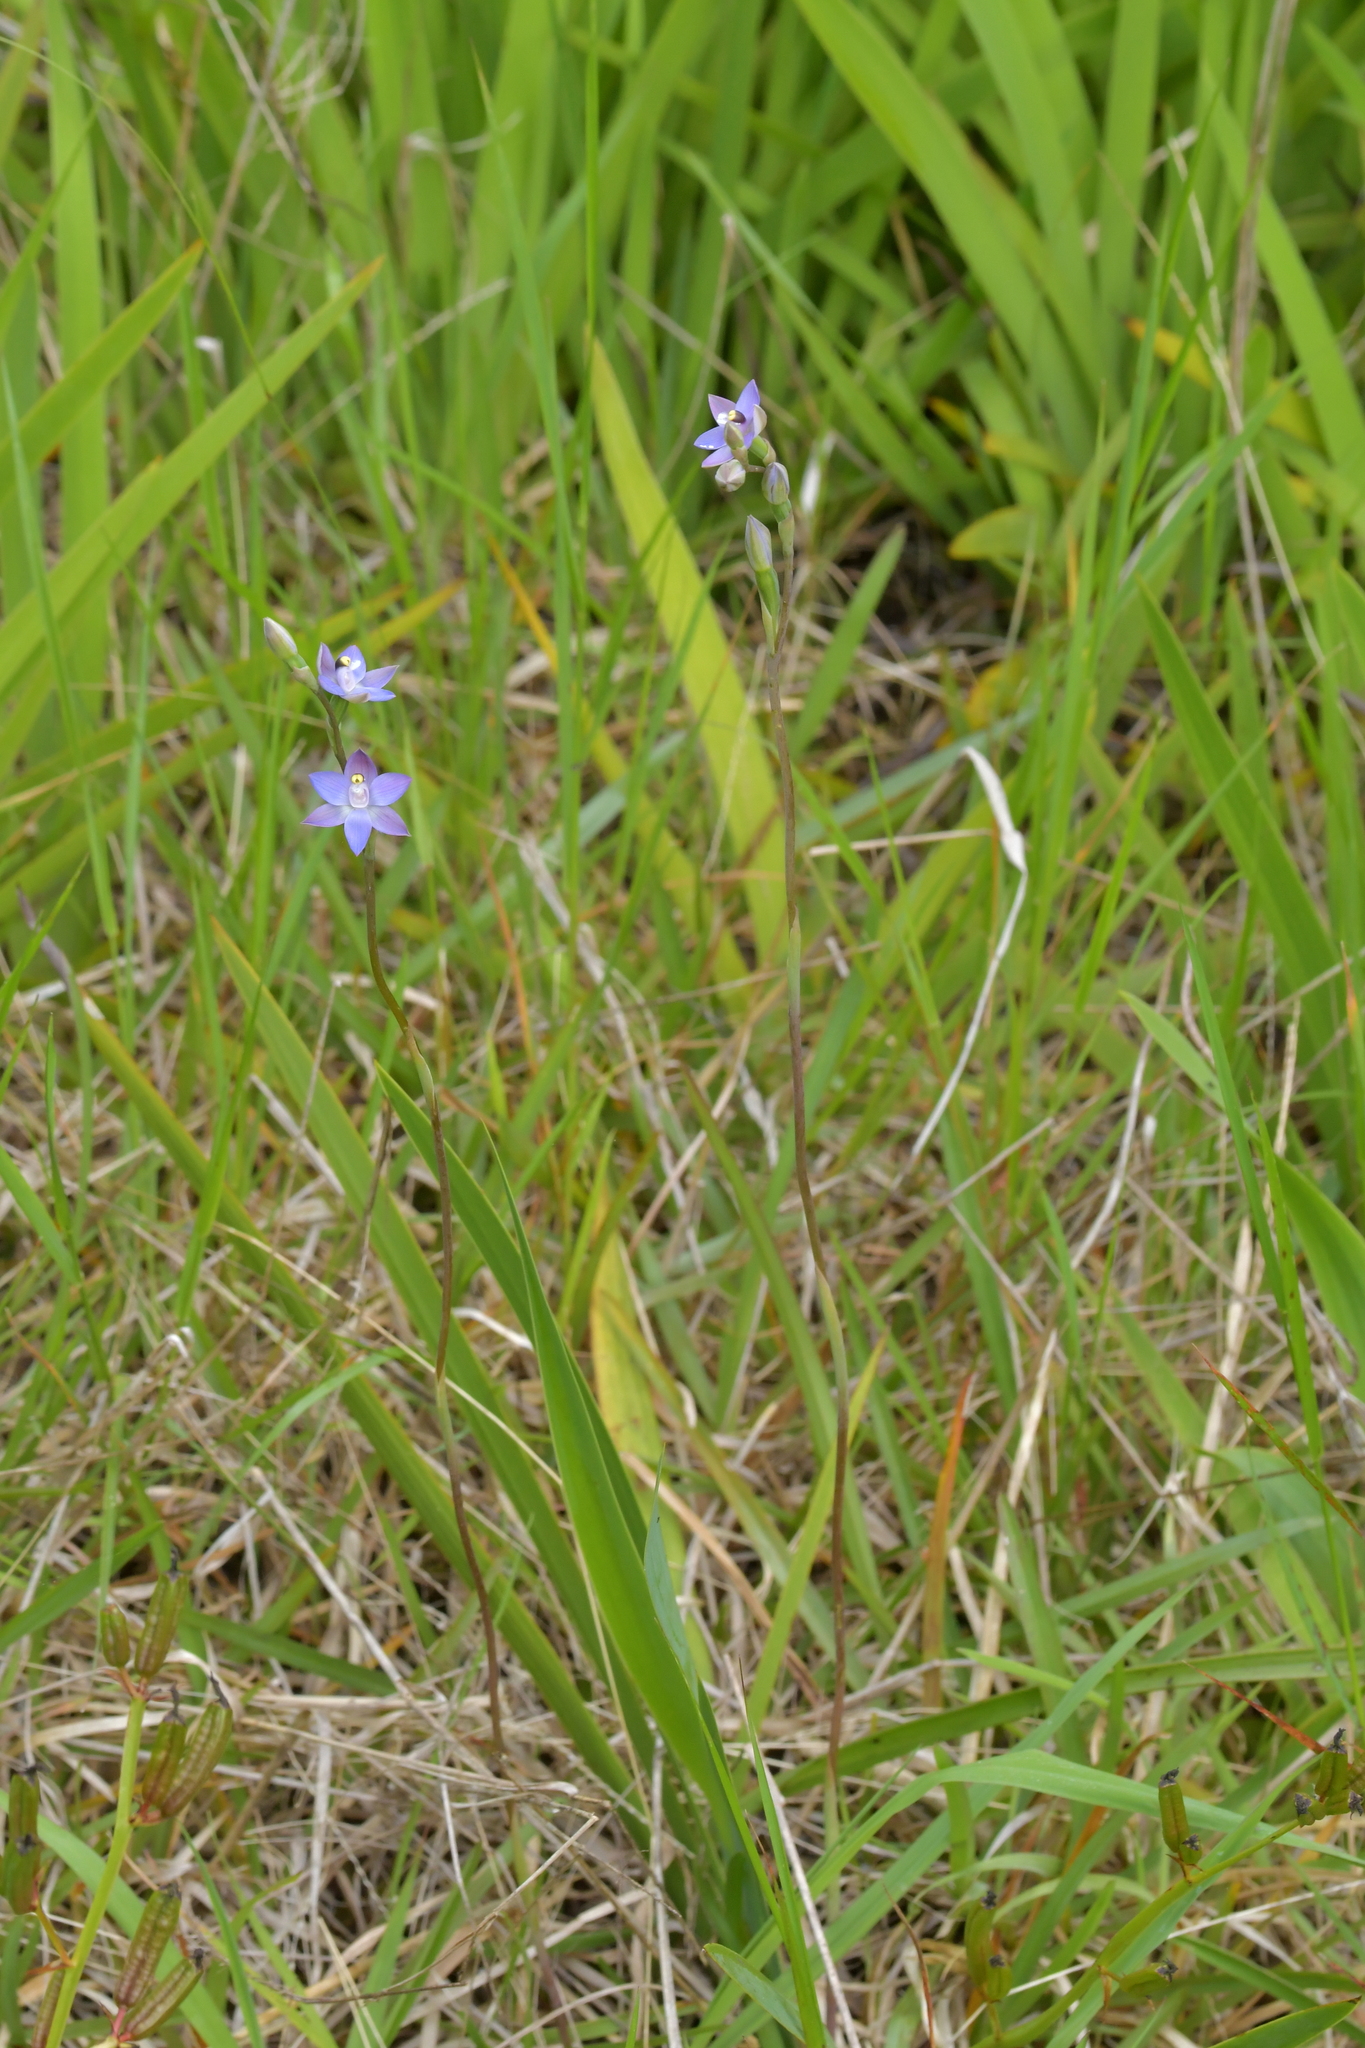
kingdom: Plantae
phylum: Tracheophyta
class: Liliopsida
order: Asparagales
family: Orchidaceae
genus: Thelymitra
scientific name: Thelymitra pauciflora
